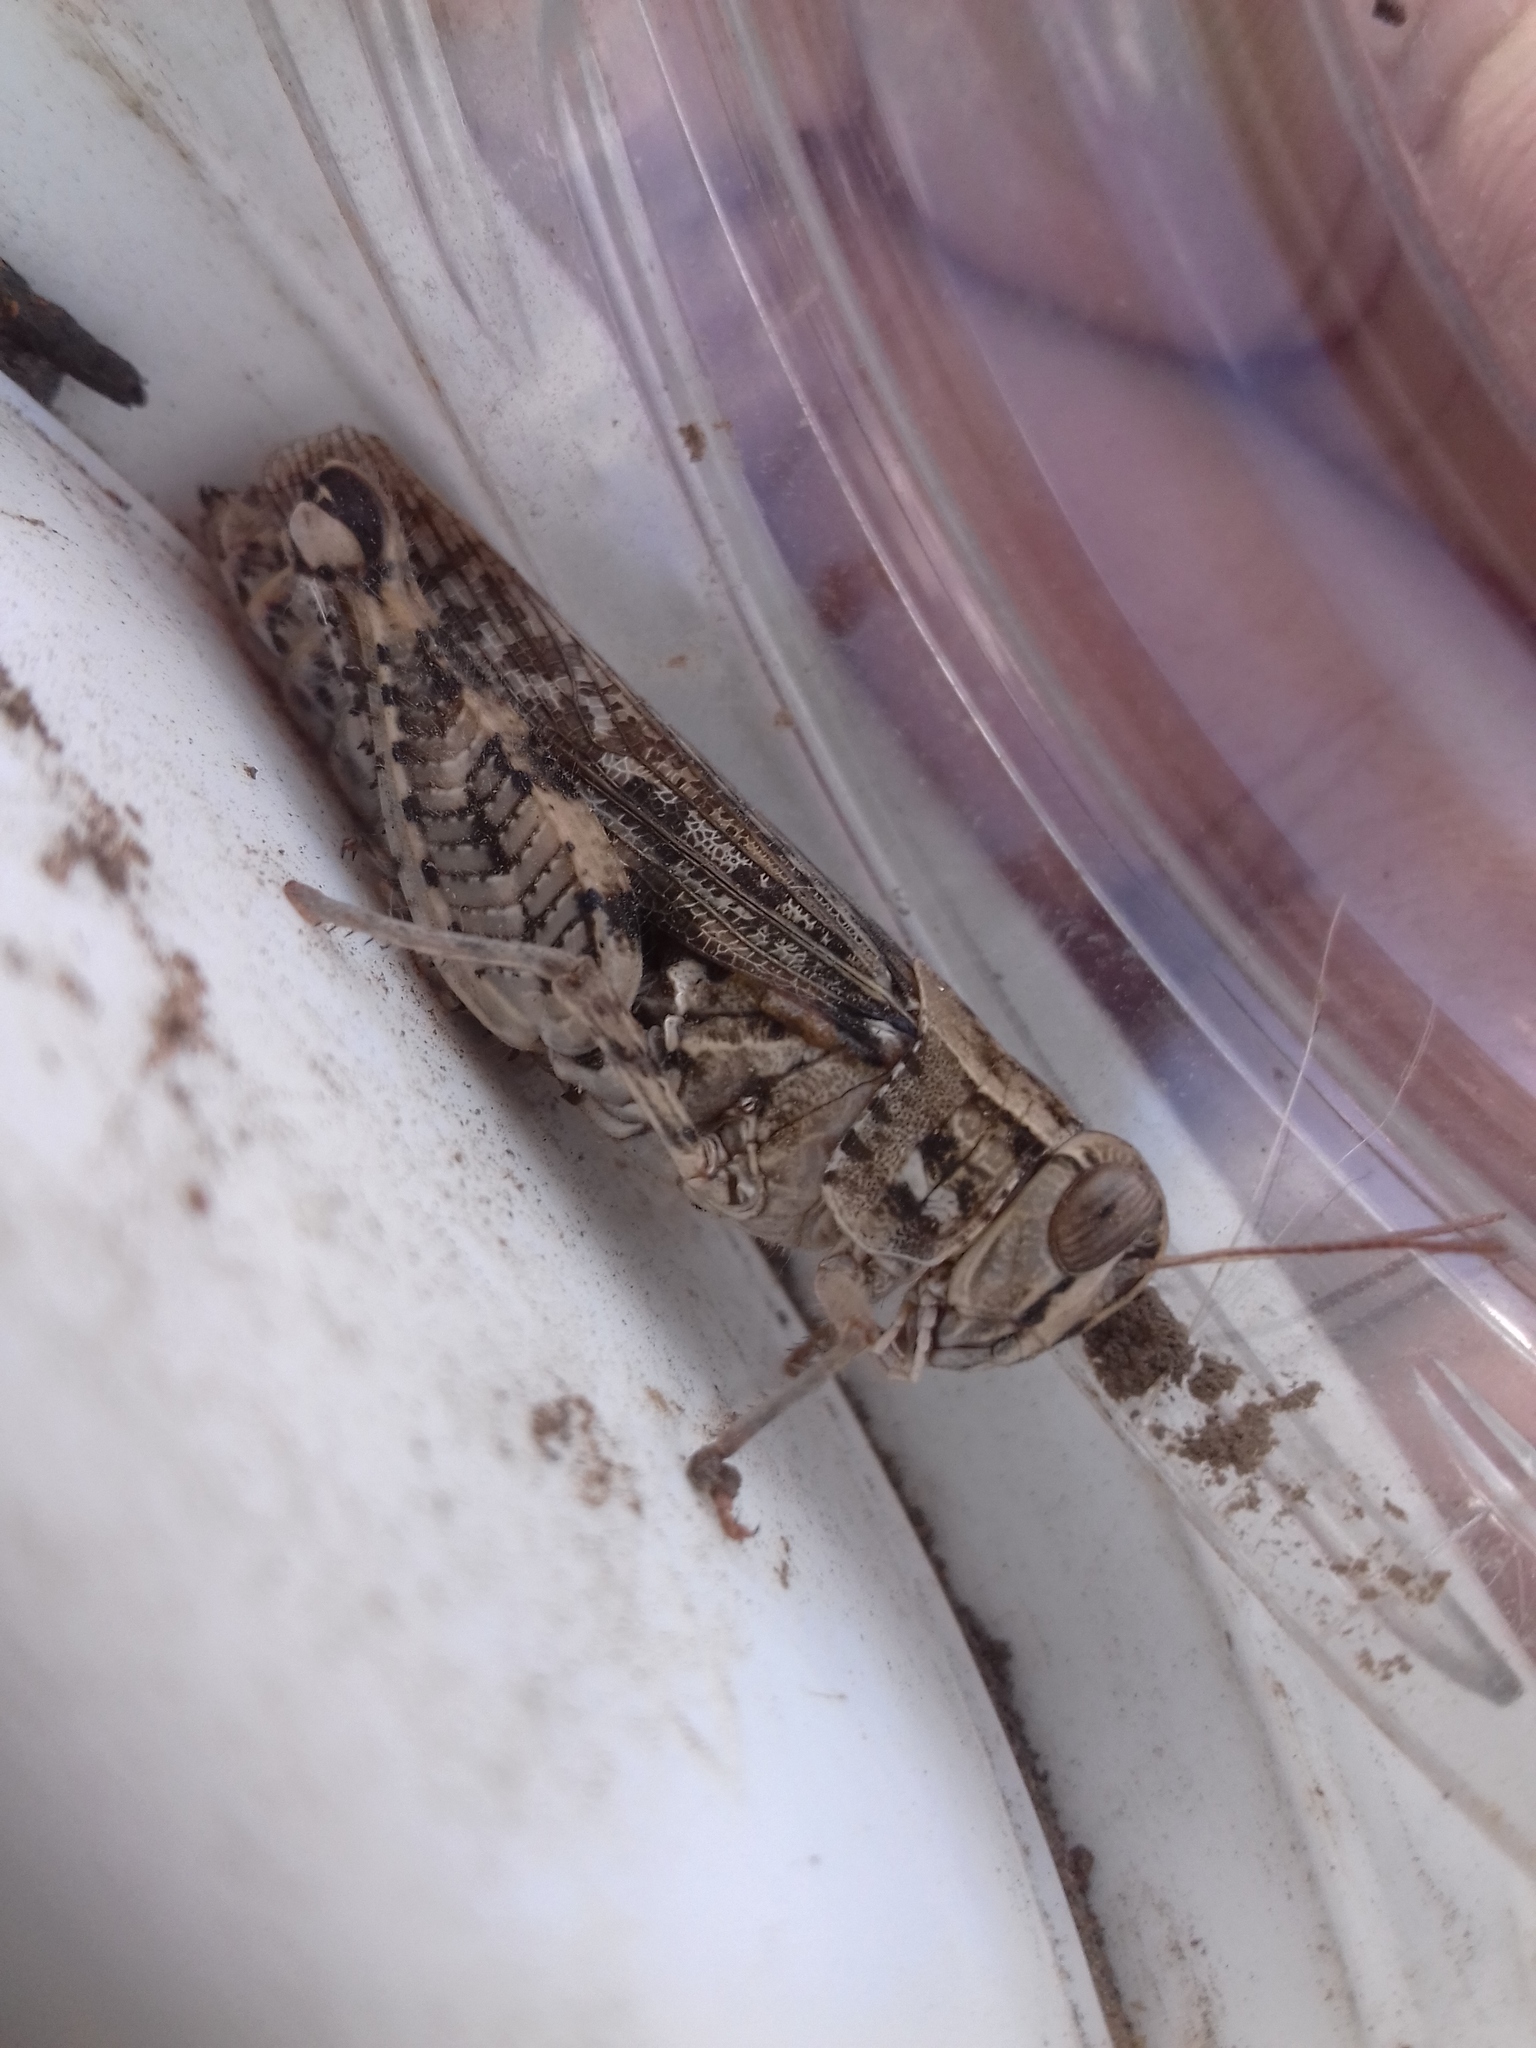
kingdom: Animalia
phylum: Arthropoda
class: Insecta
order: Orthoptera
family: Acrididae
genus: Calliptamus
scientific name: Calliptamus italicus
